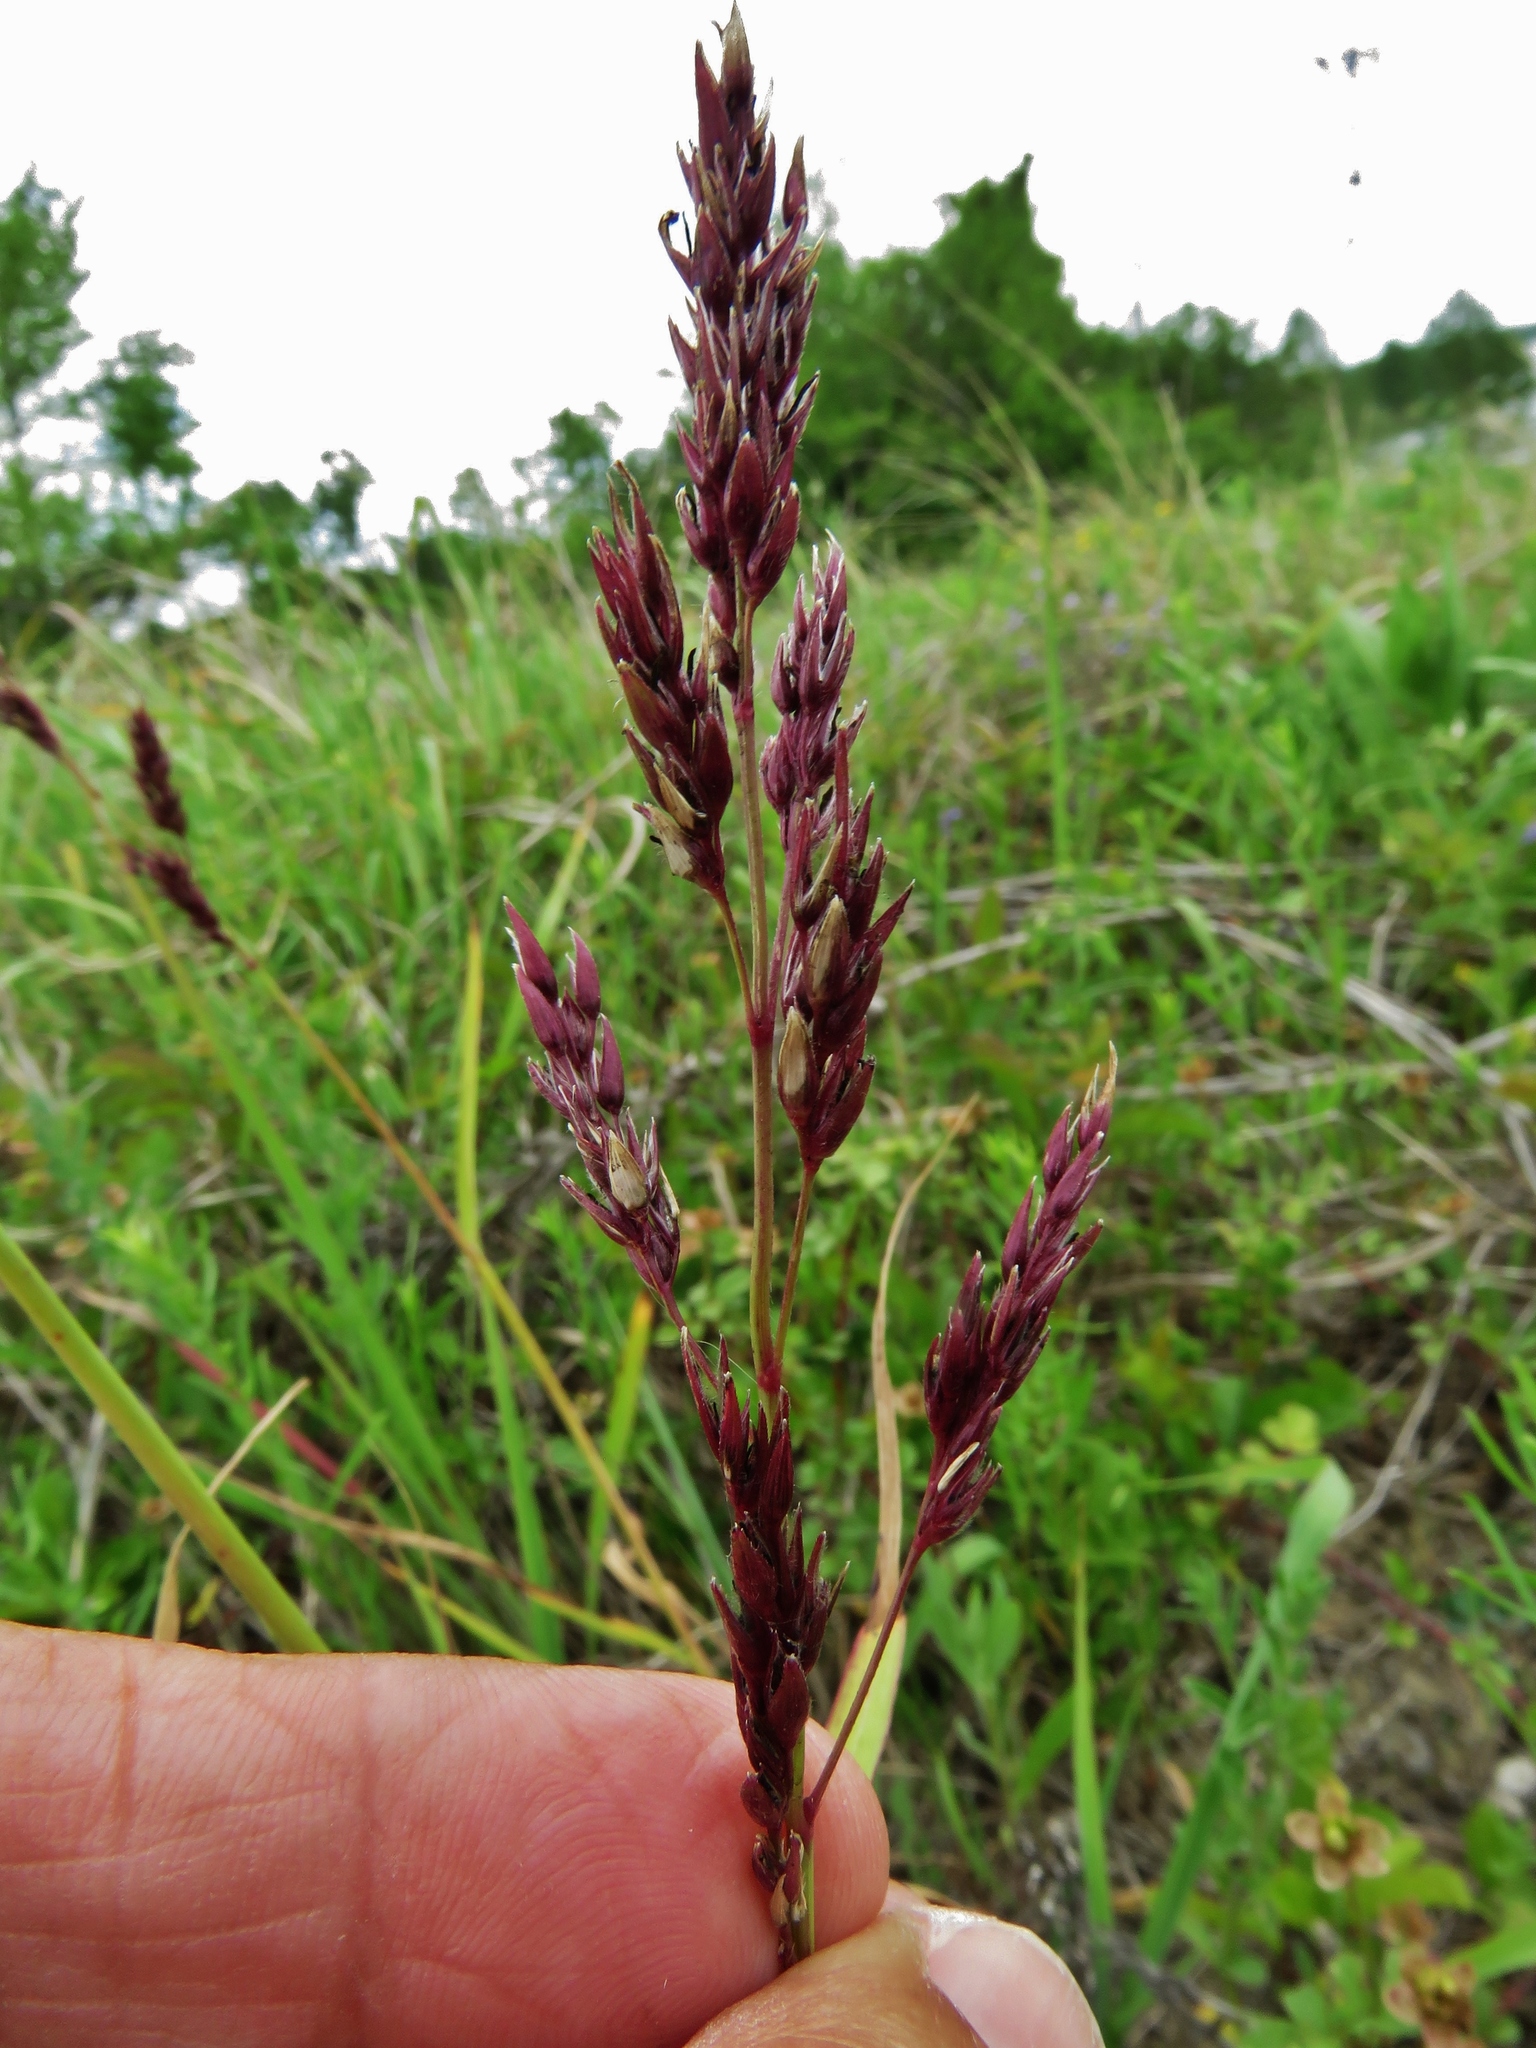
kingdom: Plantae
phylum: Tracheophyta
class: Liliopsida
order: Poales
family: Poaceae
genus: Sorghum
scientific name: Sorghum halepense
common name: Johnson-grass
